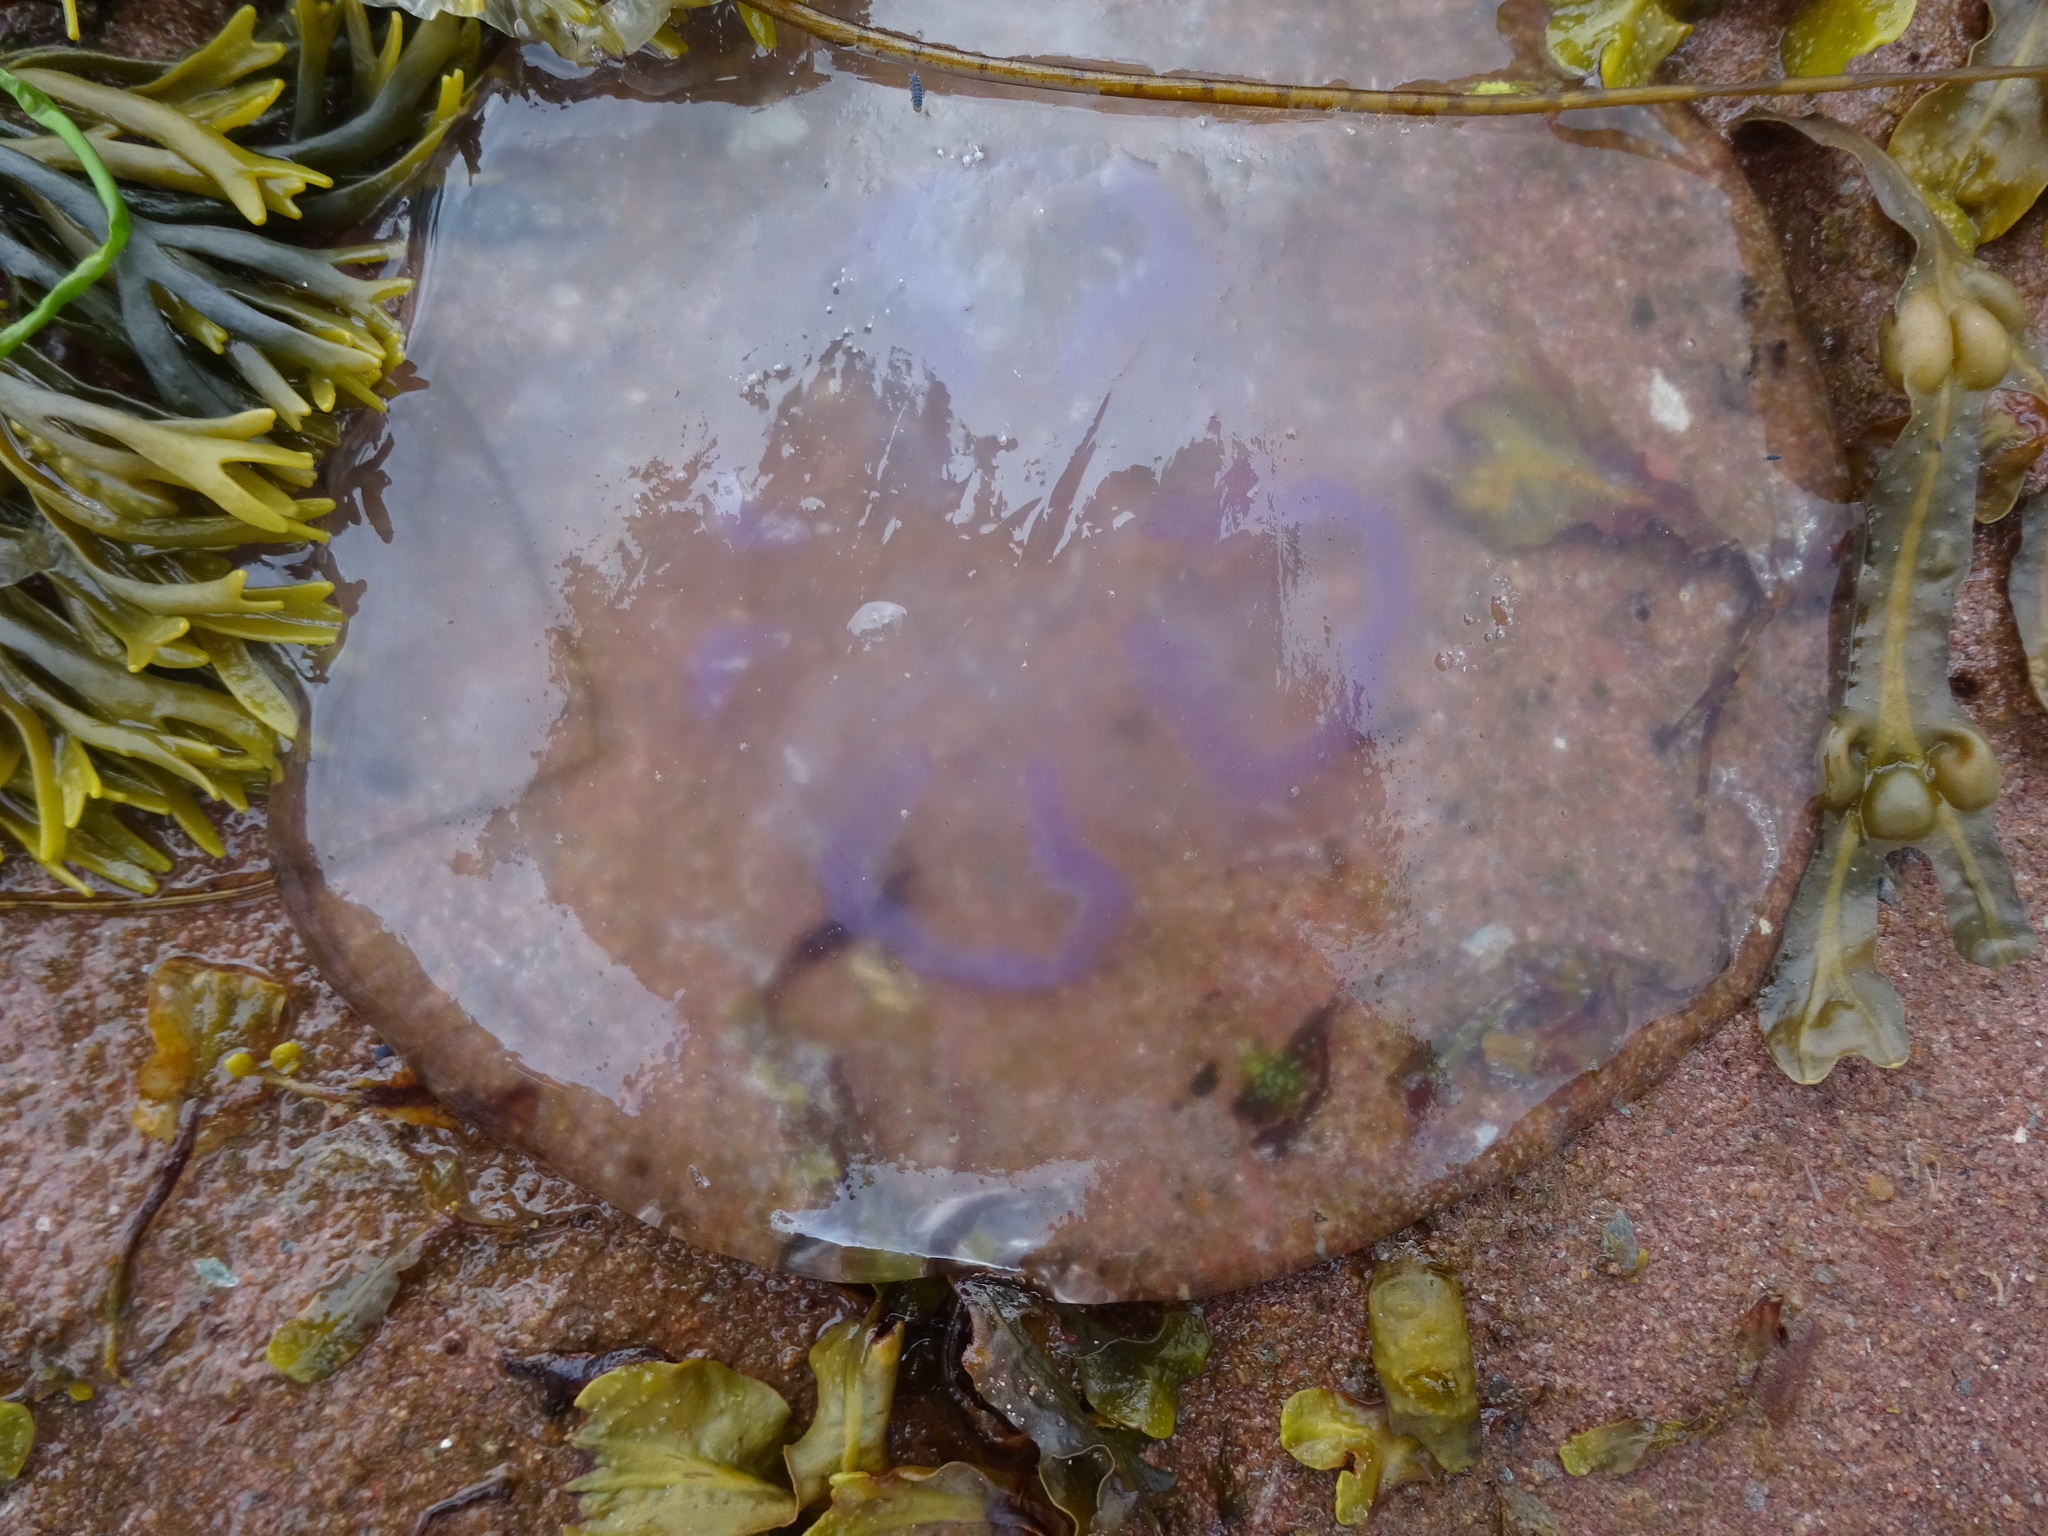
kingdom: Animalia
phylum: Cnidaria
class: Scyphozoa
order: Semaeostomeae
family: Ulmaridae
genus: Aurelia
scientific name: Aurelia aurita
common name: Moon jellyfish
